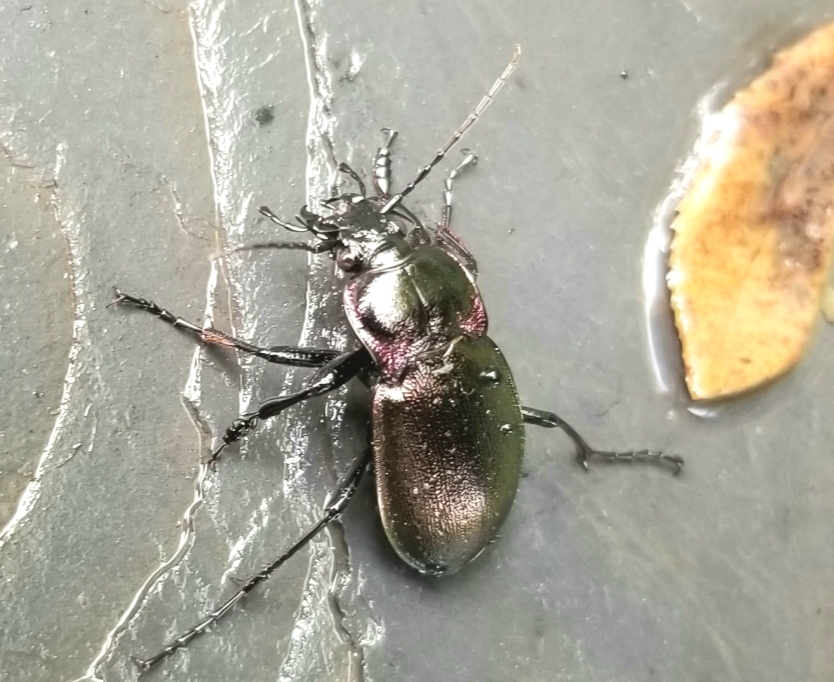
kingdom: Animalia
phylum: Arthropoda
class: Insecta
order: Coleoptera
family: Carabidae
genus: Carabus
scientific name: Carabus nemoralis
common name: European ground beetle
